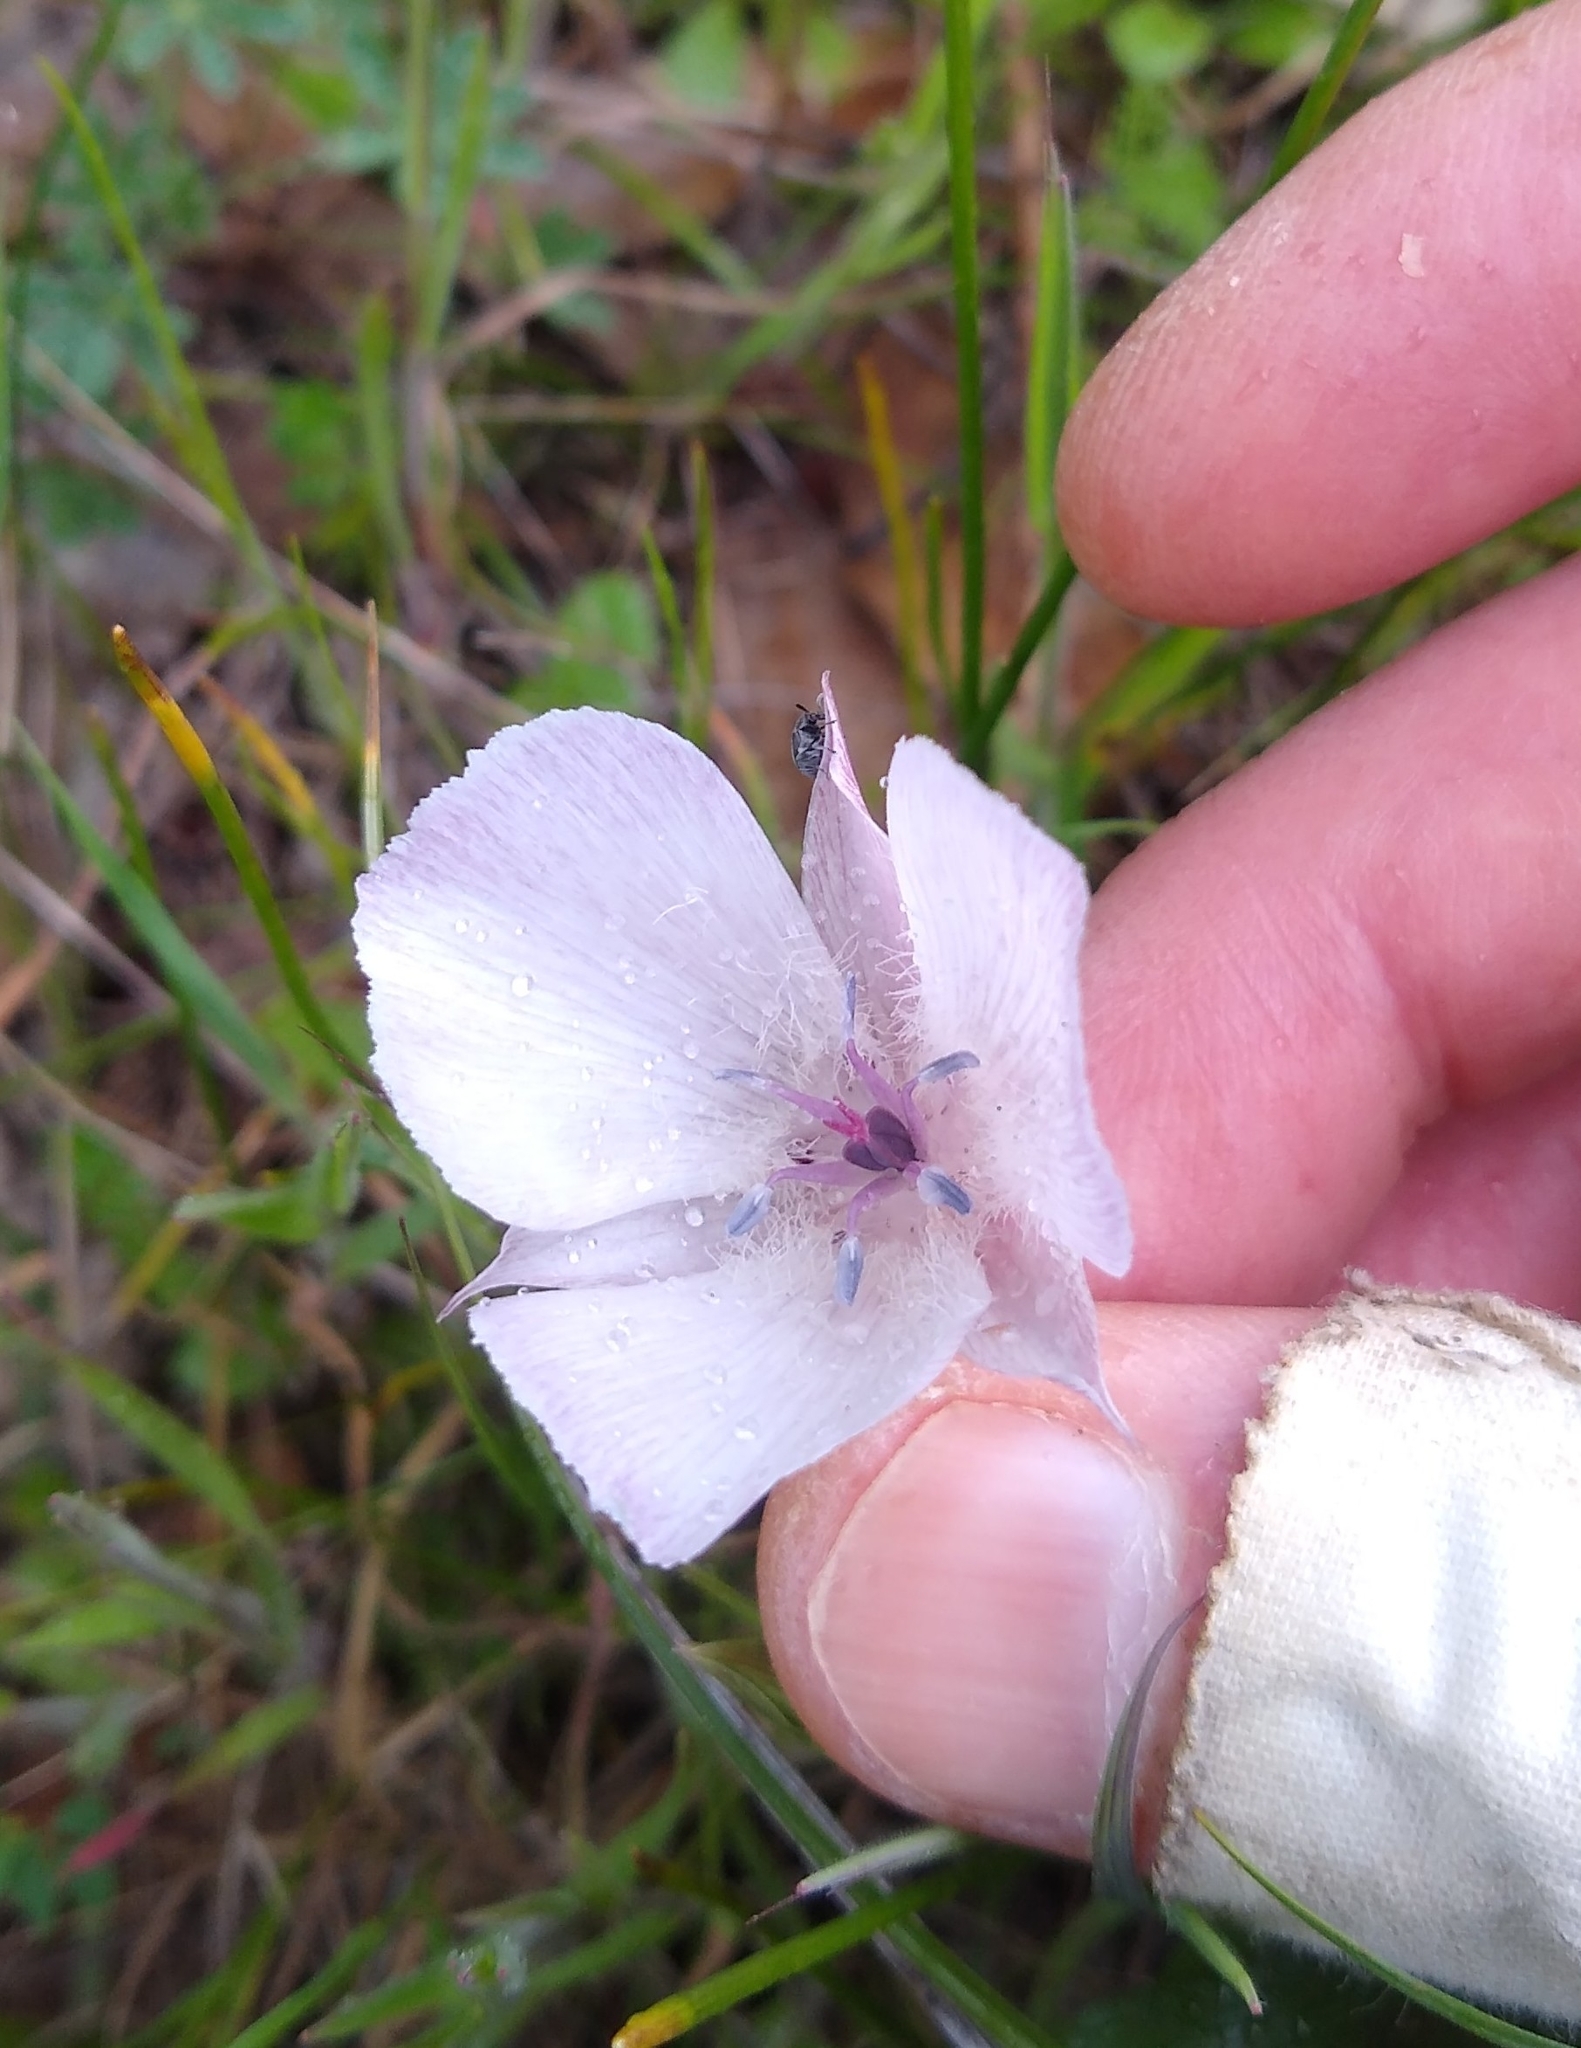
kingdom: Plantae
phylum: Tracheophyta
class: Liliopsida
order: Liliales
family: Liliaceae
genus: Calochortus
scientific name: Calochortus umbellatus
